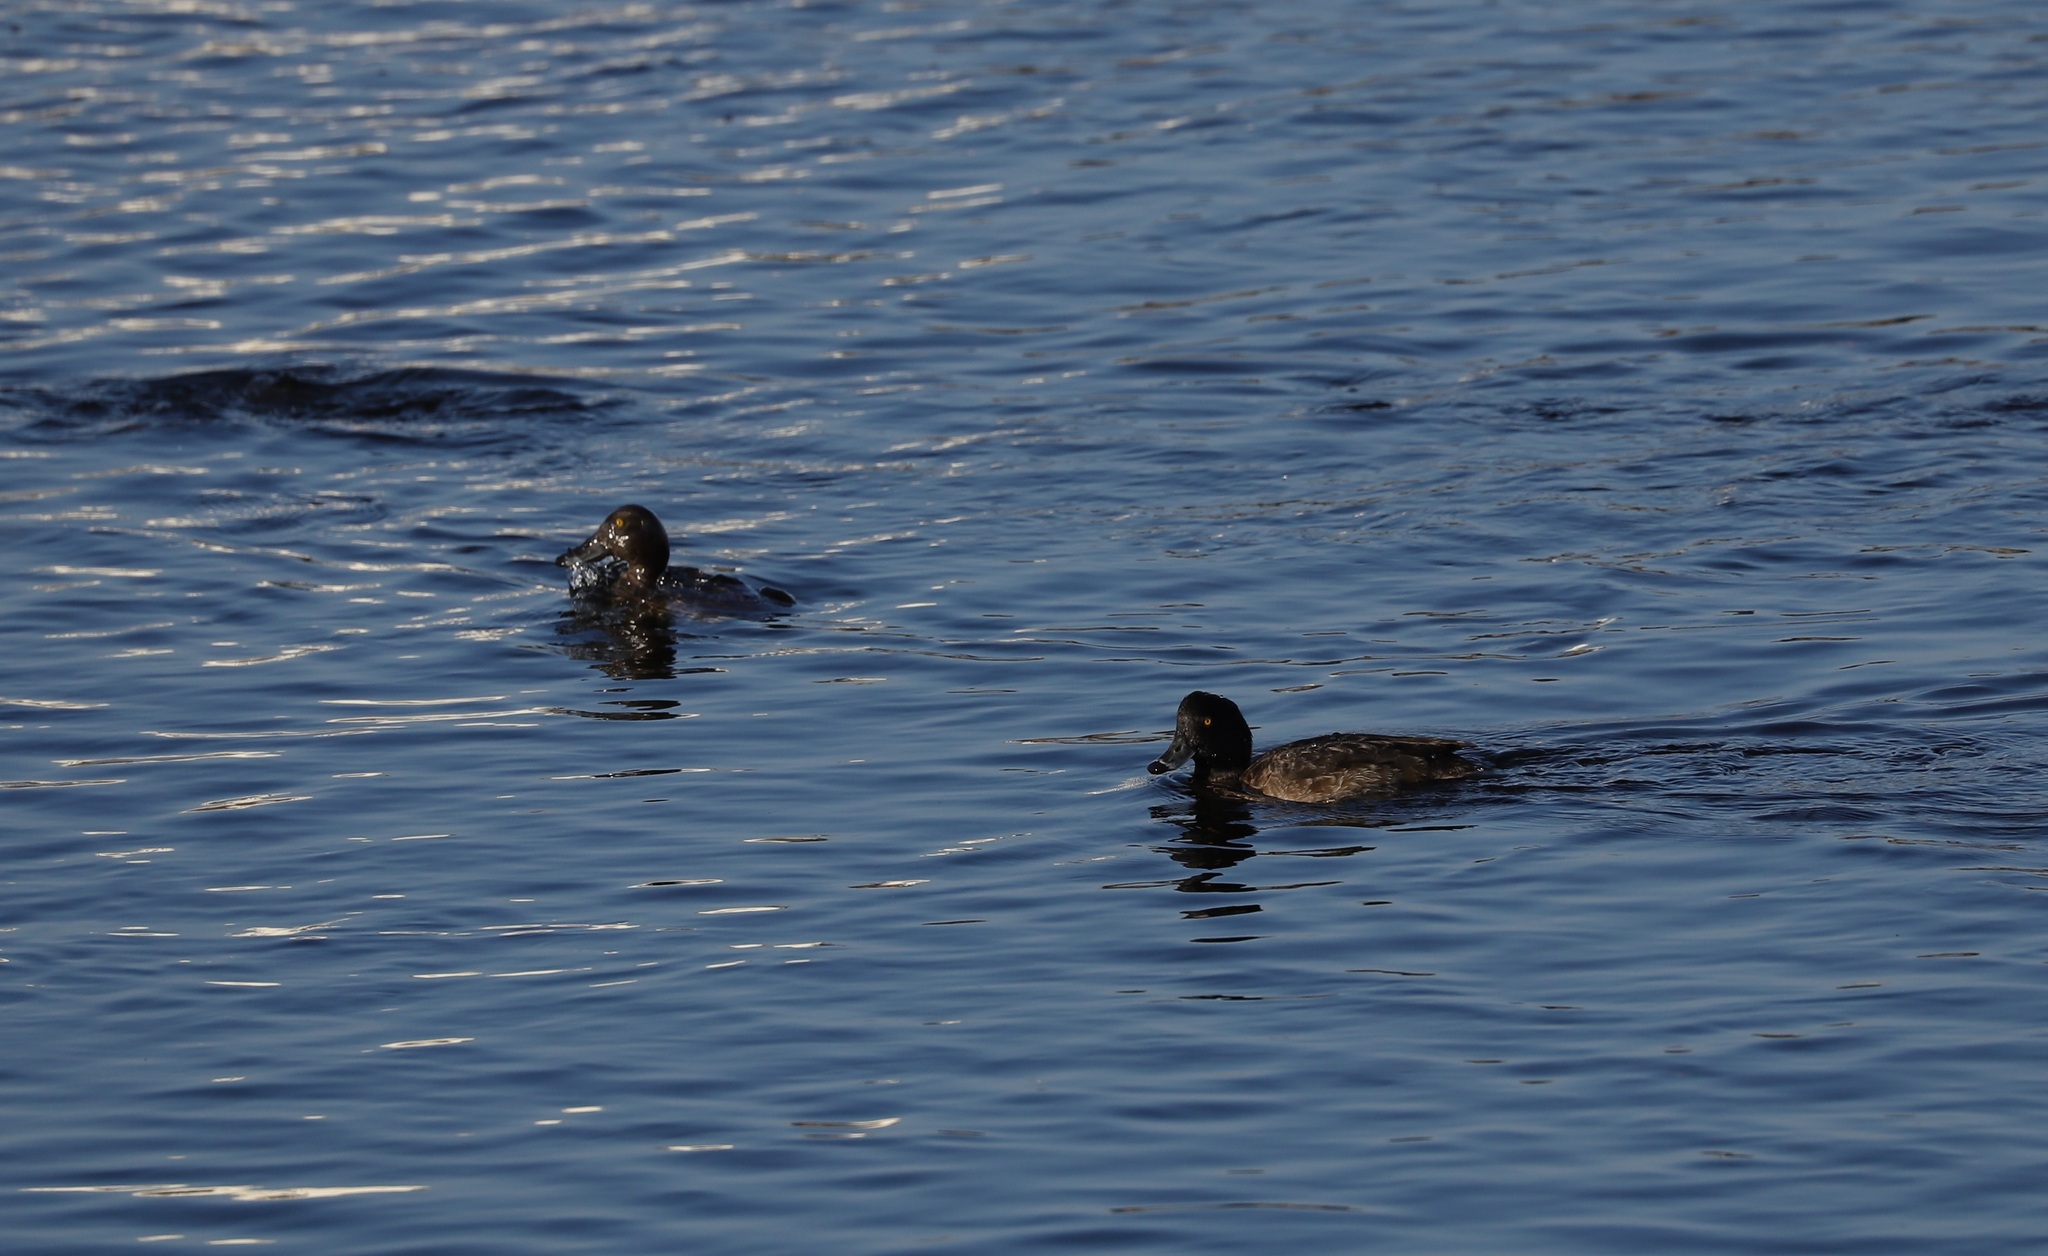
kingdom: Animalia
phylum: Chordata
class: Aves
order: Anseriformes
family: Anatidae
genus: Aythya
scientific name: Aythya fuligula
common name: Tufted duck
